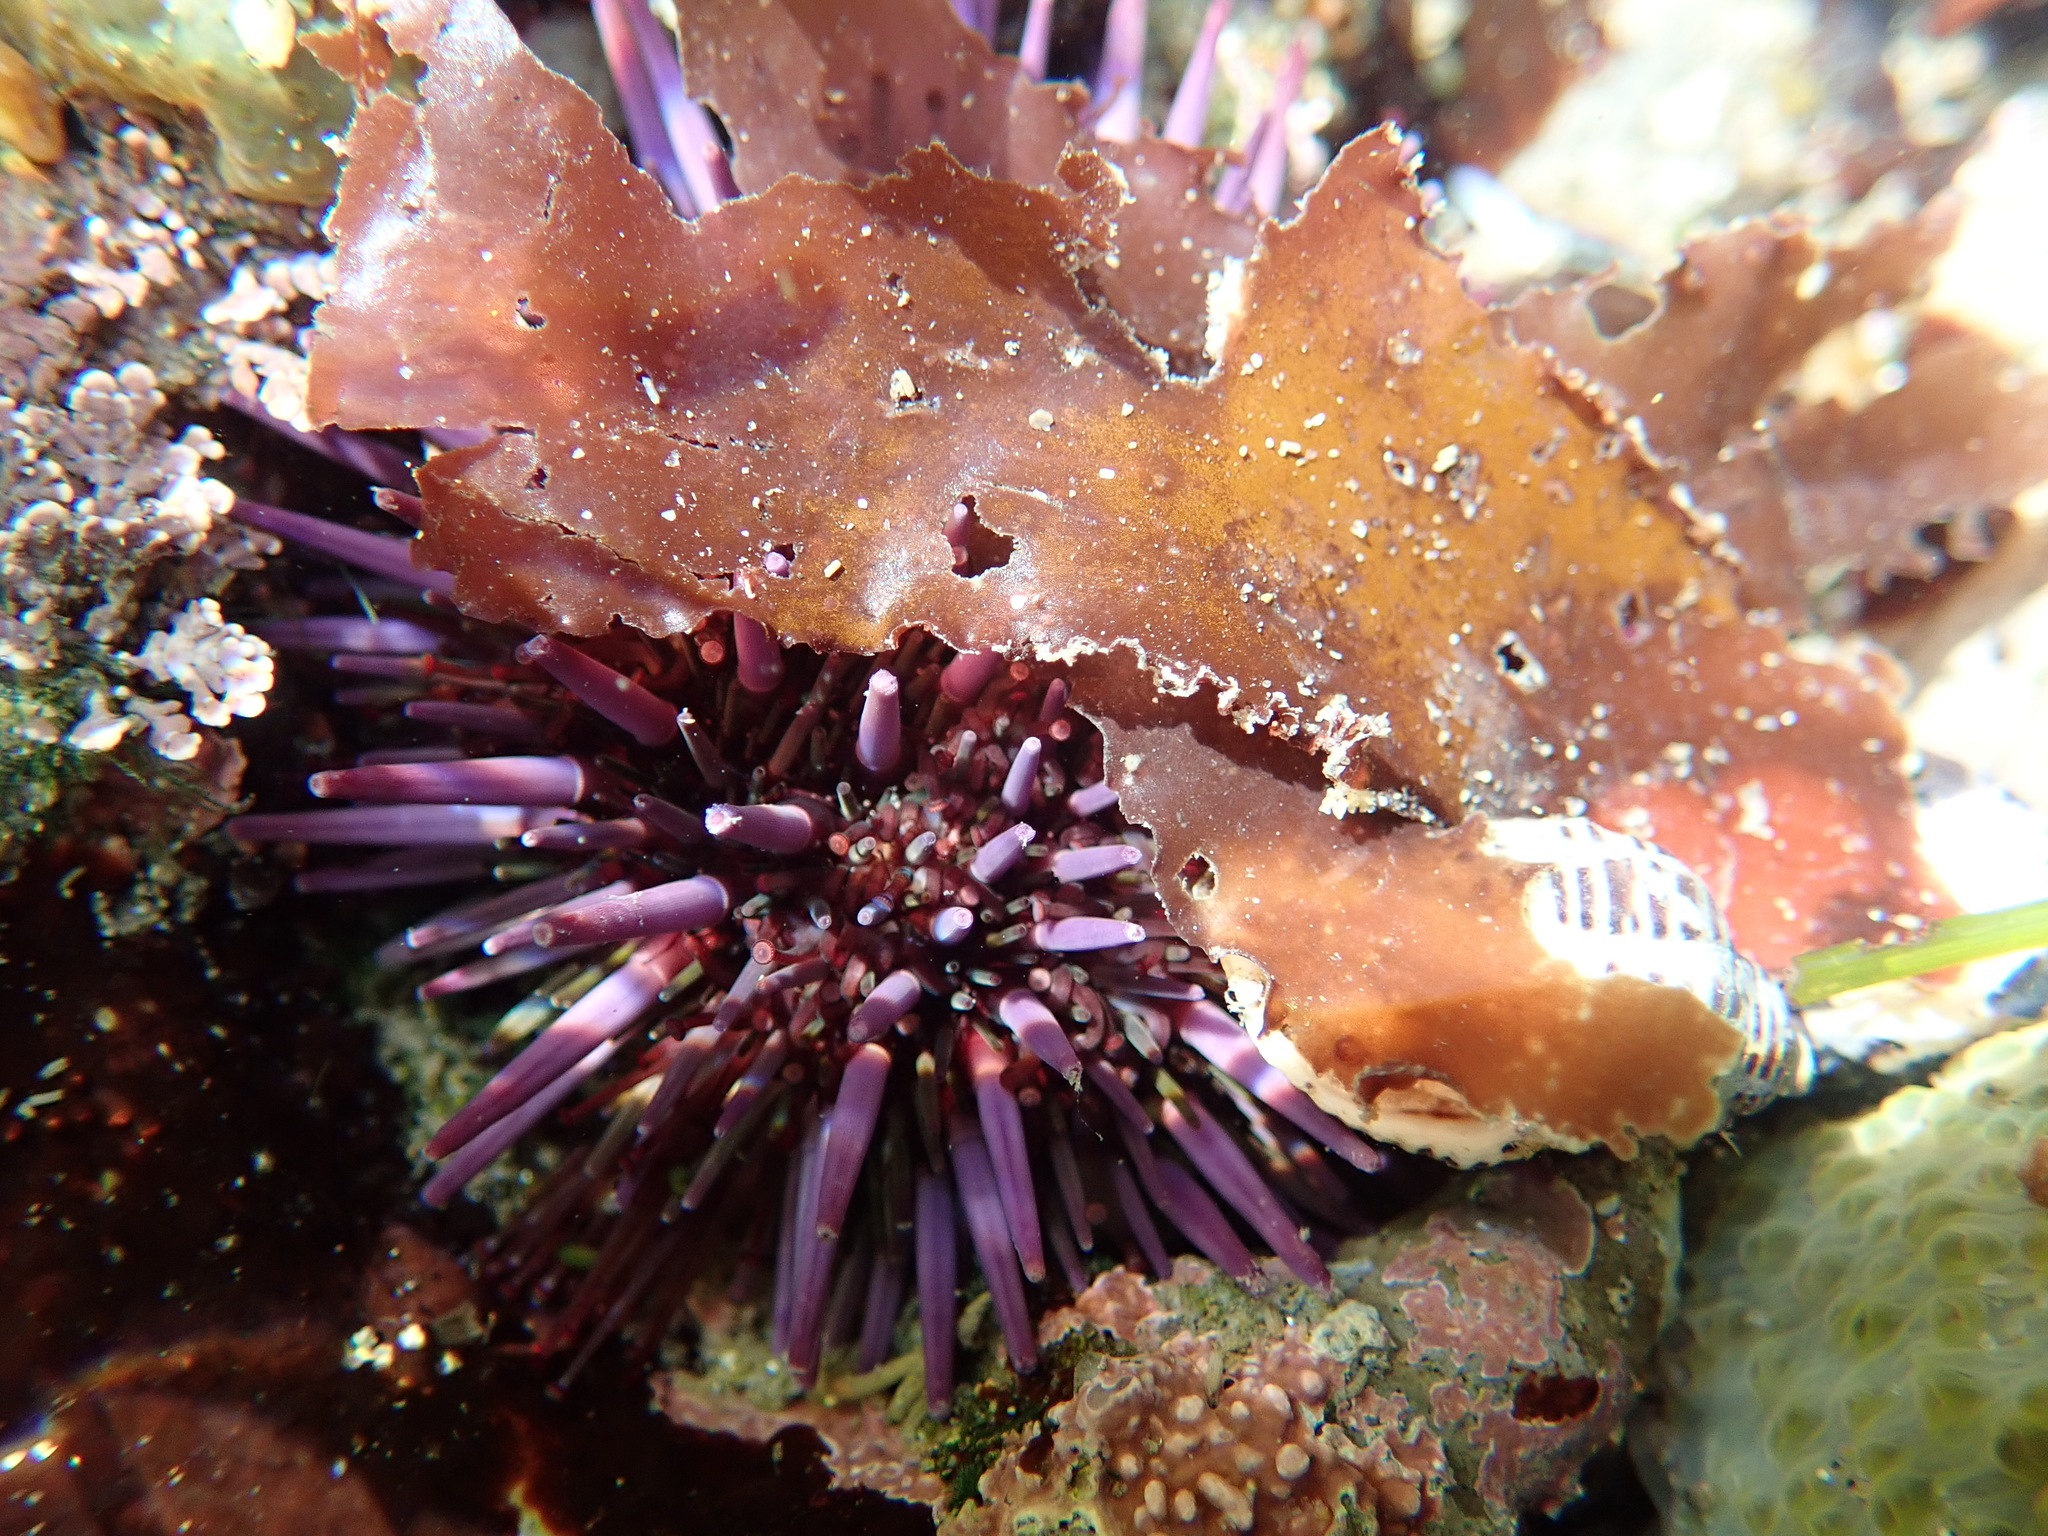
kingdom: Animalia
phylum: Echinodermata
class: Echinoidea
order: Camarodonta
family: Strongylocentrotidae
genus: Strongylocentrotus
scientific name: Strongylocentrotus purpuratus
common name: Purple sea urchin
